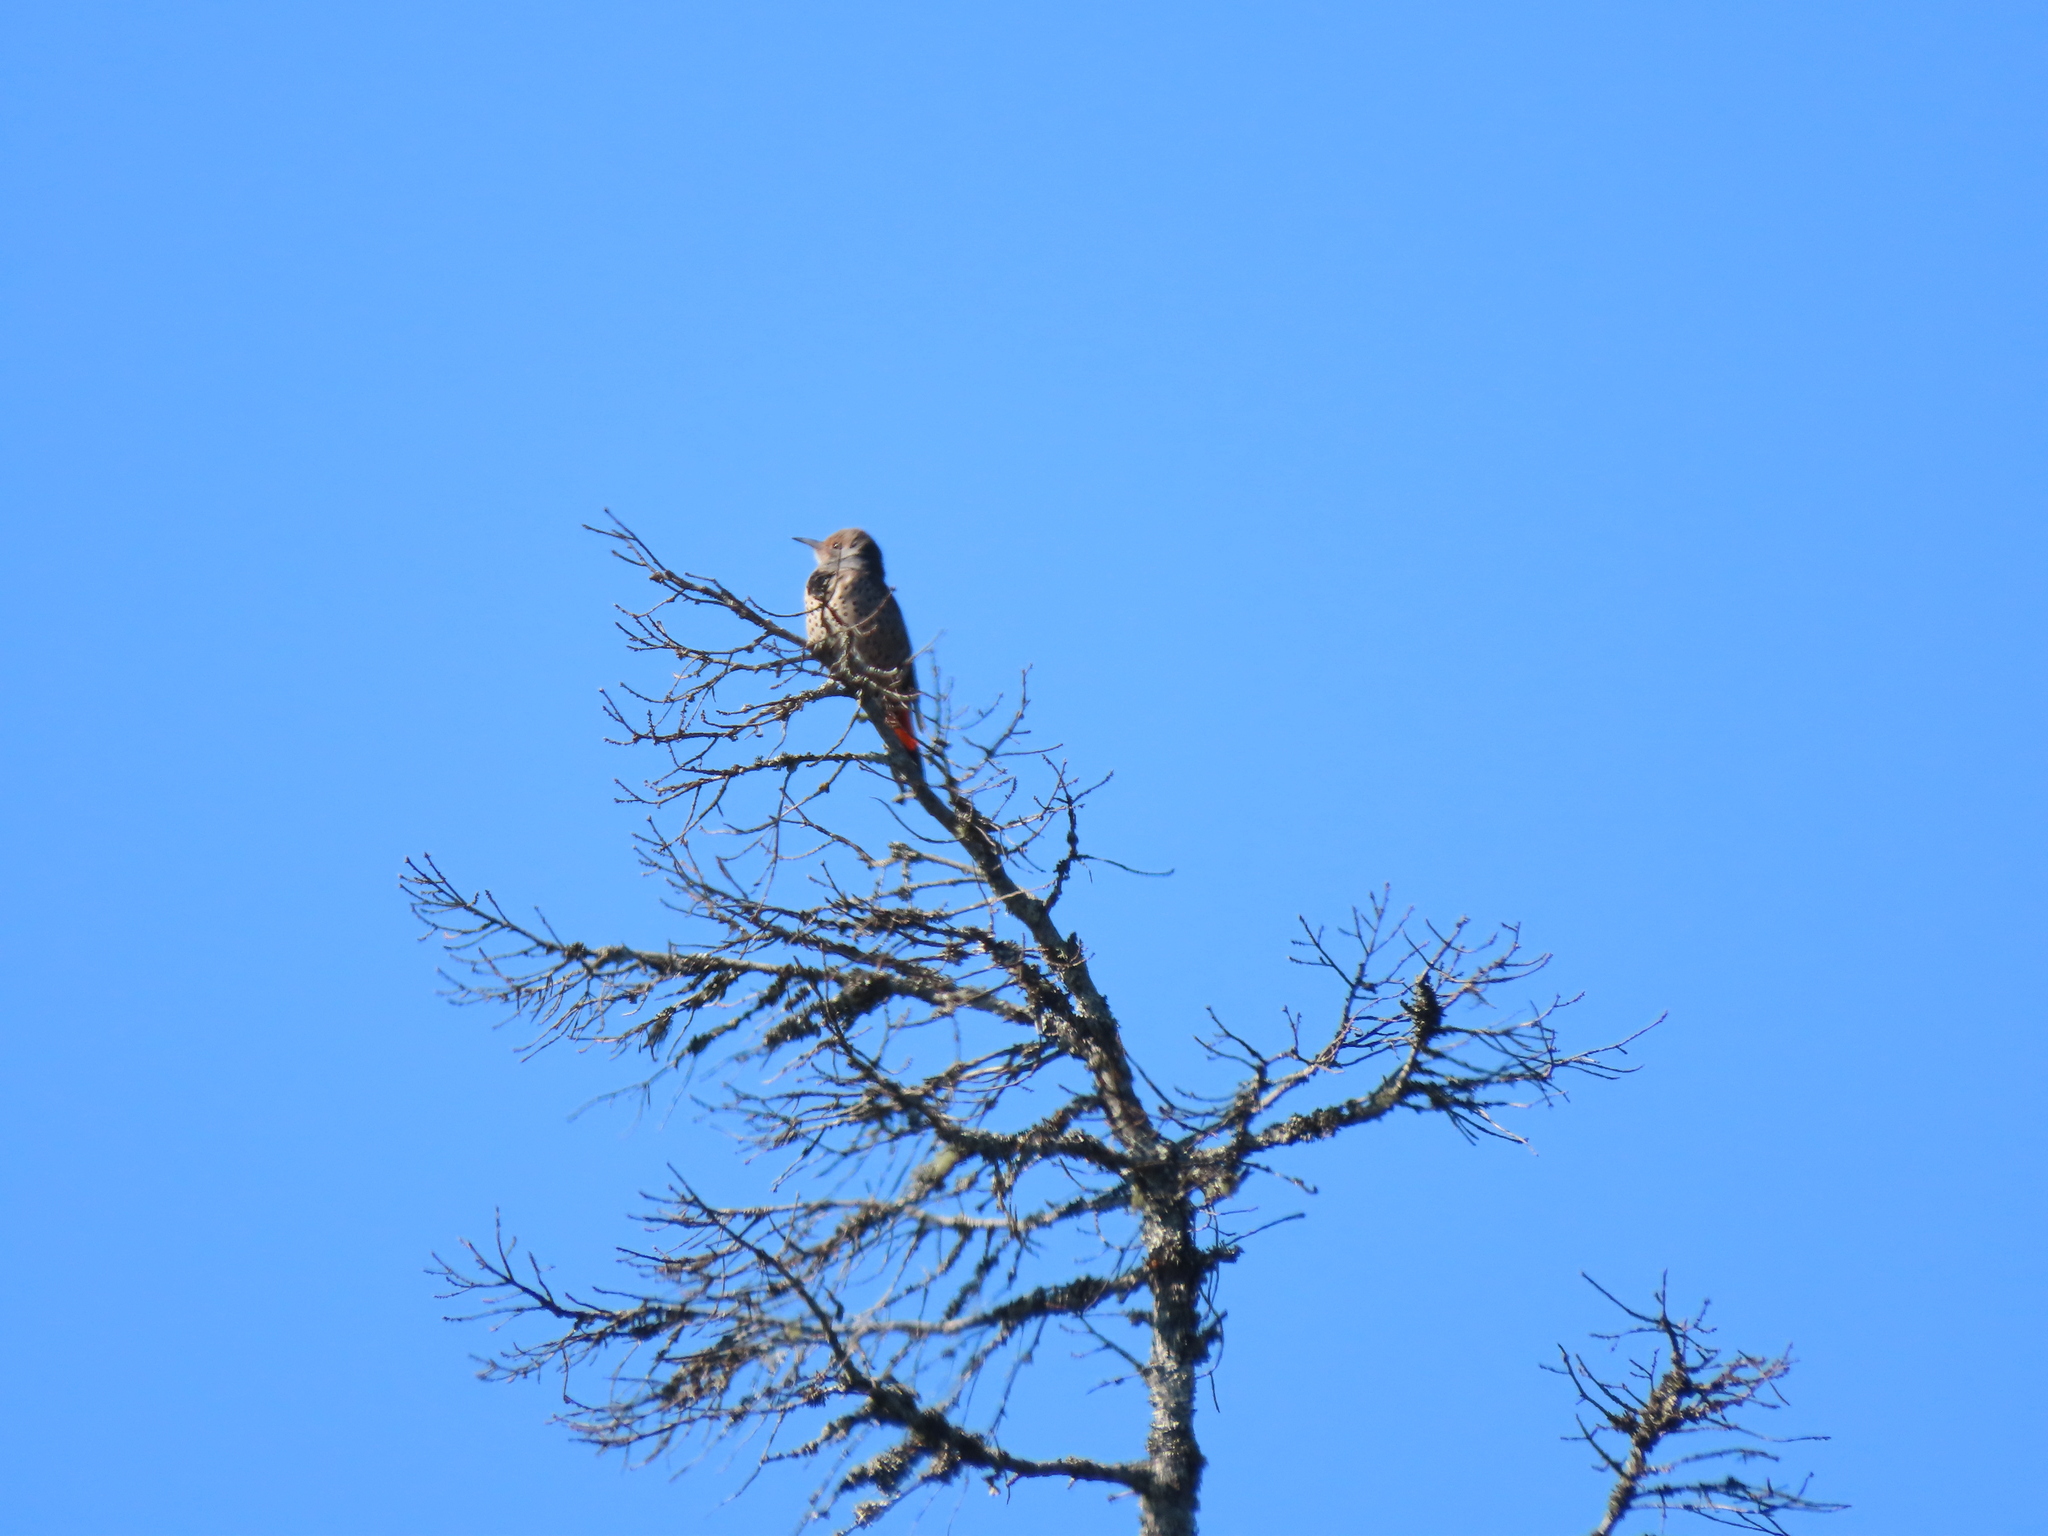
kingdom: Animalia
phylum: Chordata
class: Aves
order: Piciformes
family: Picidae
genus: Colaptes
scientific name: Colaptes auratus
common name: Northern flicker
